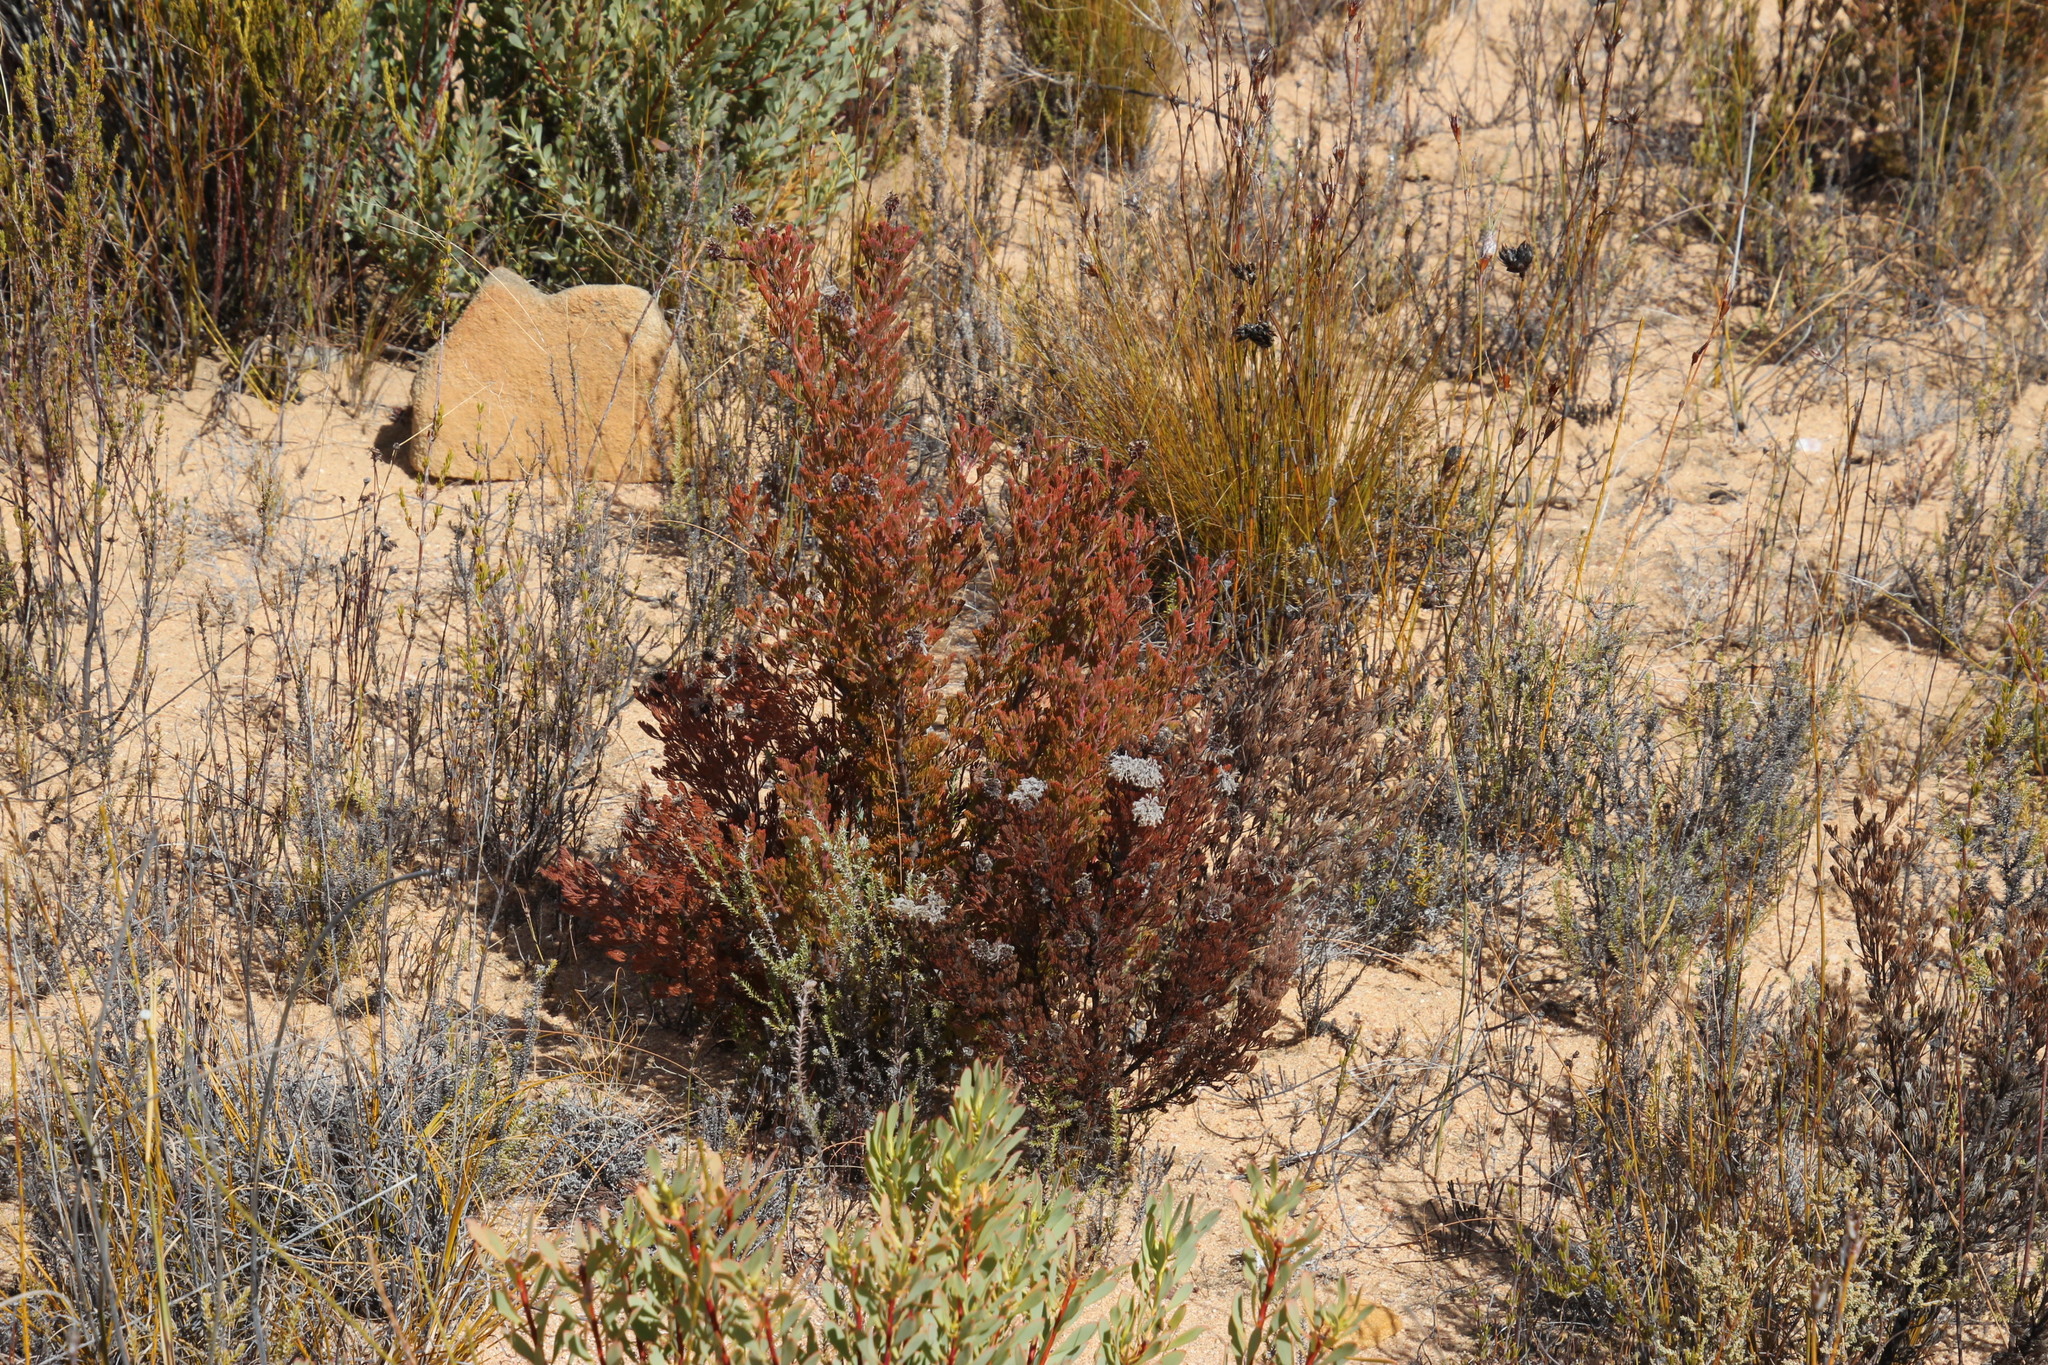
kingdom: Plantae
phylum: Tracheophyta
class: Magnoliopsida
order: Proteales
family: Proteaceae
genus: Serruria
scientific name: Serruria aitonii
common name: Marshmallow spiderhead
